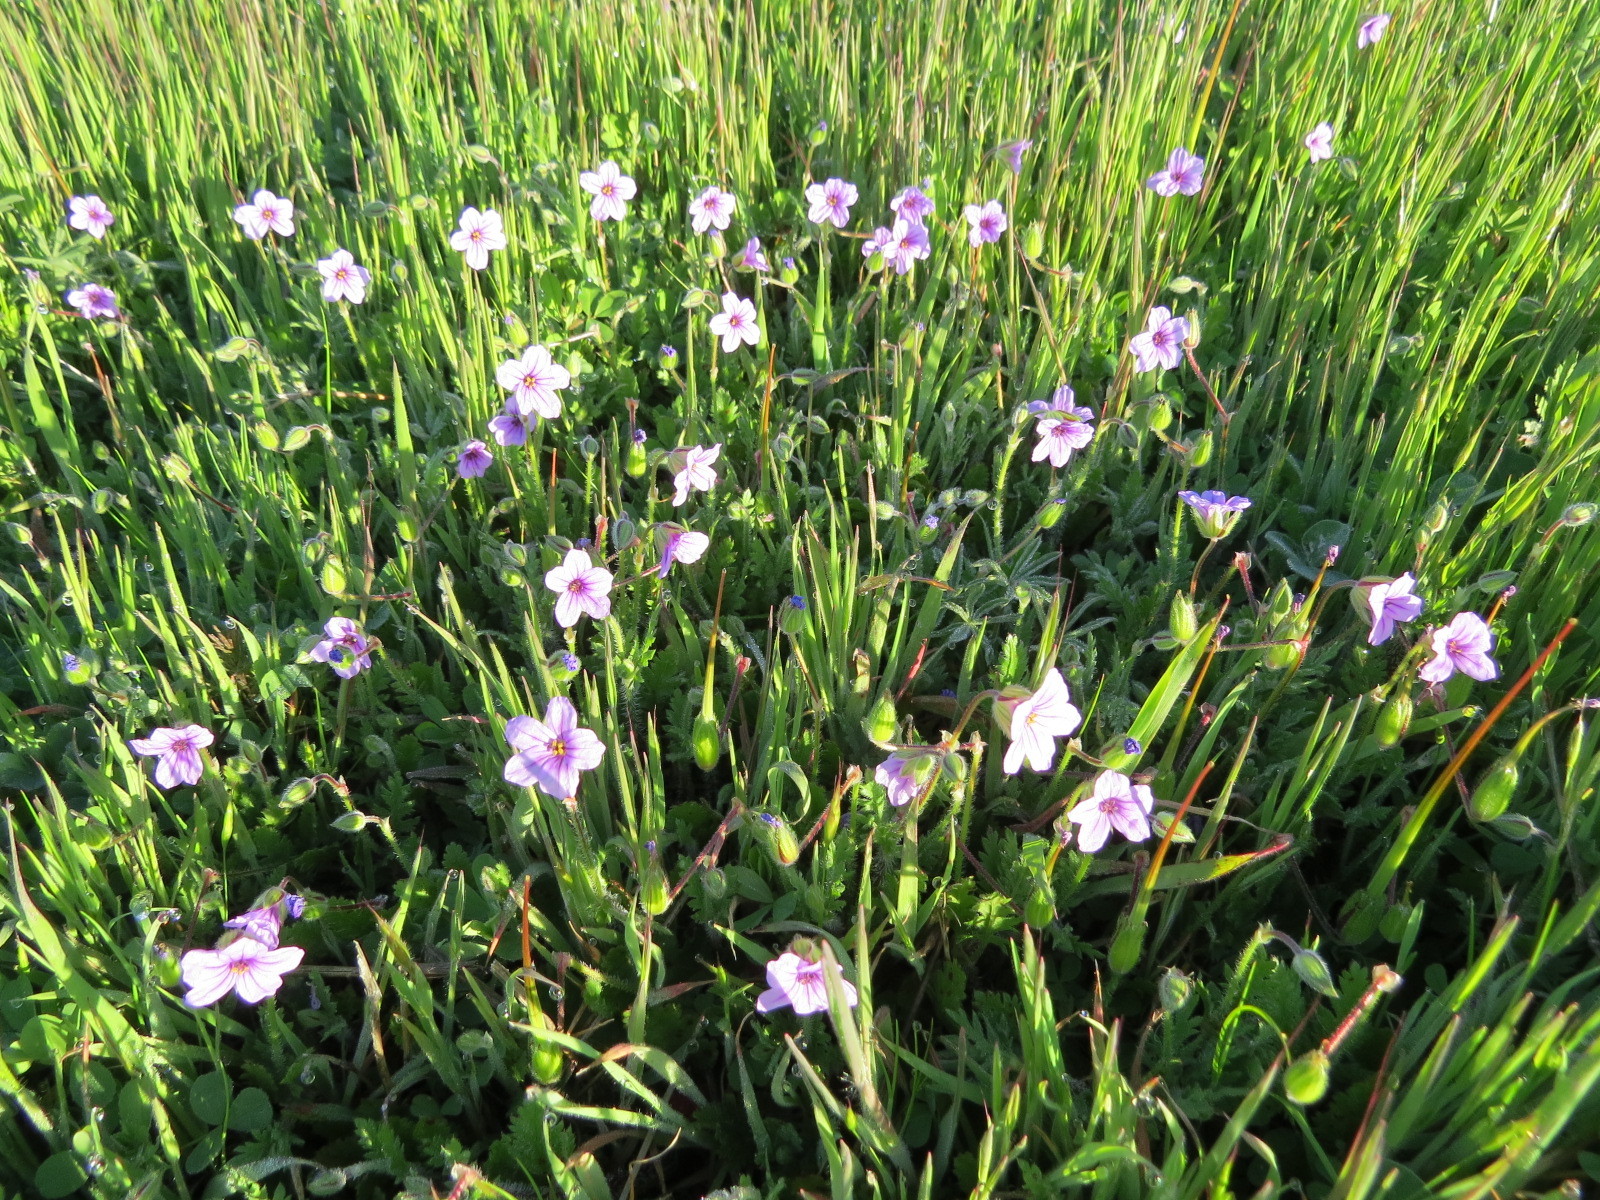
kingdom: Plantae
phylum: Tracheophyta
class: Magnoliopsida
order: Geraniales
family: Geraniaceae
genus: Erodium
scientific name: Erodium botrys
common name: Mediterranean stork's-bill
